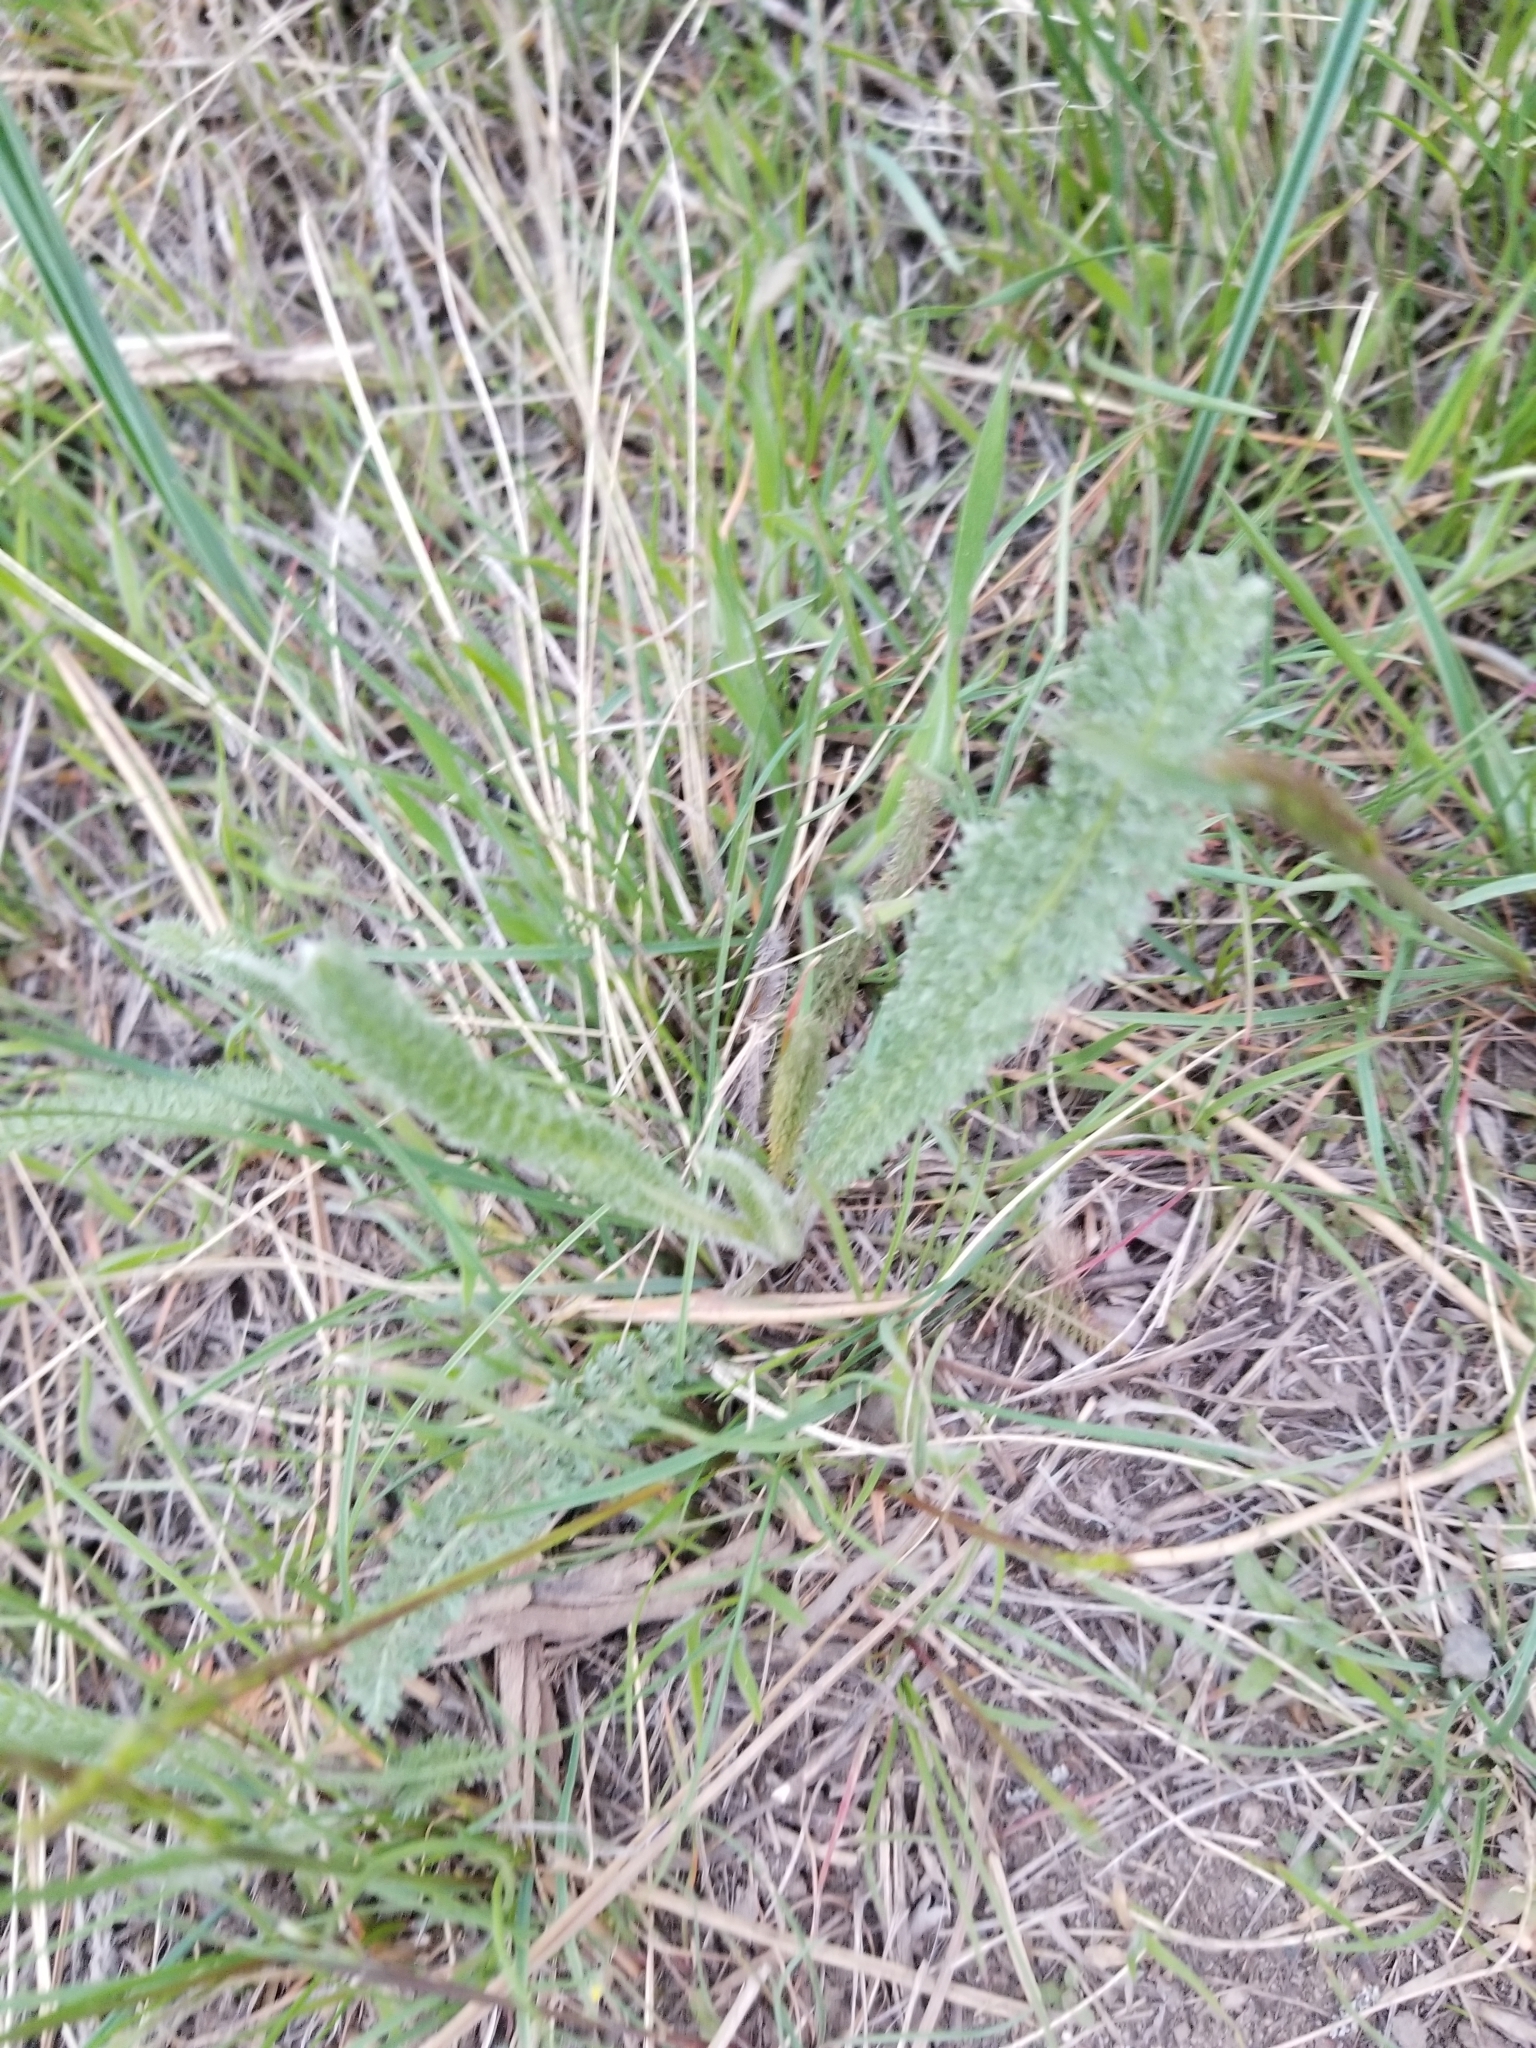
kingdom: Plantae
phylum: Tracheophyta
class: Magnoliopsida
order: Asterales
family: Asteraceae
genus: Achillea
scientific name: Achillea millefolium
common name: Yarrow
